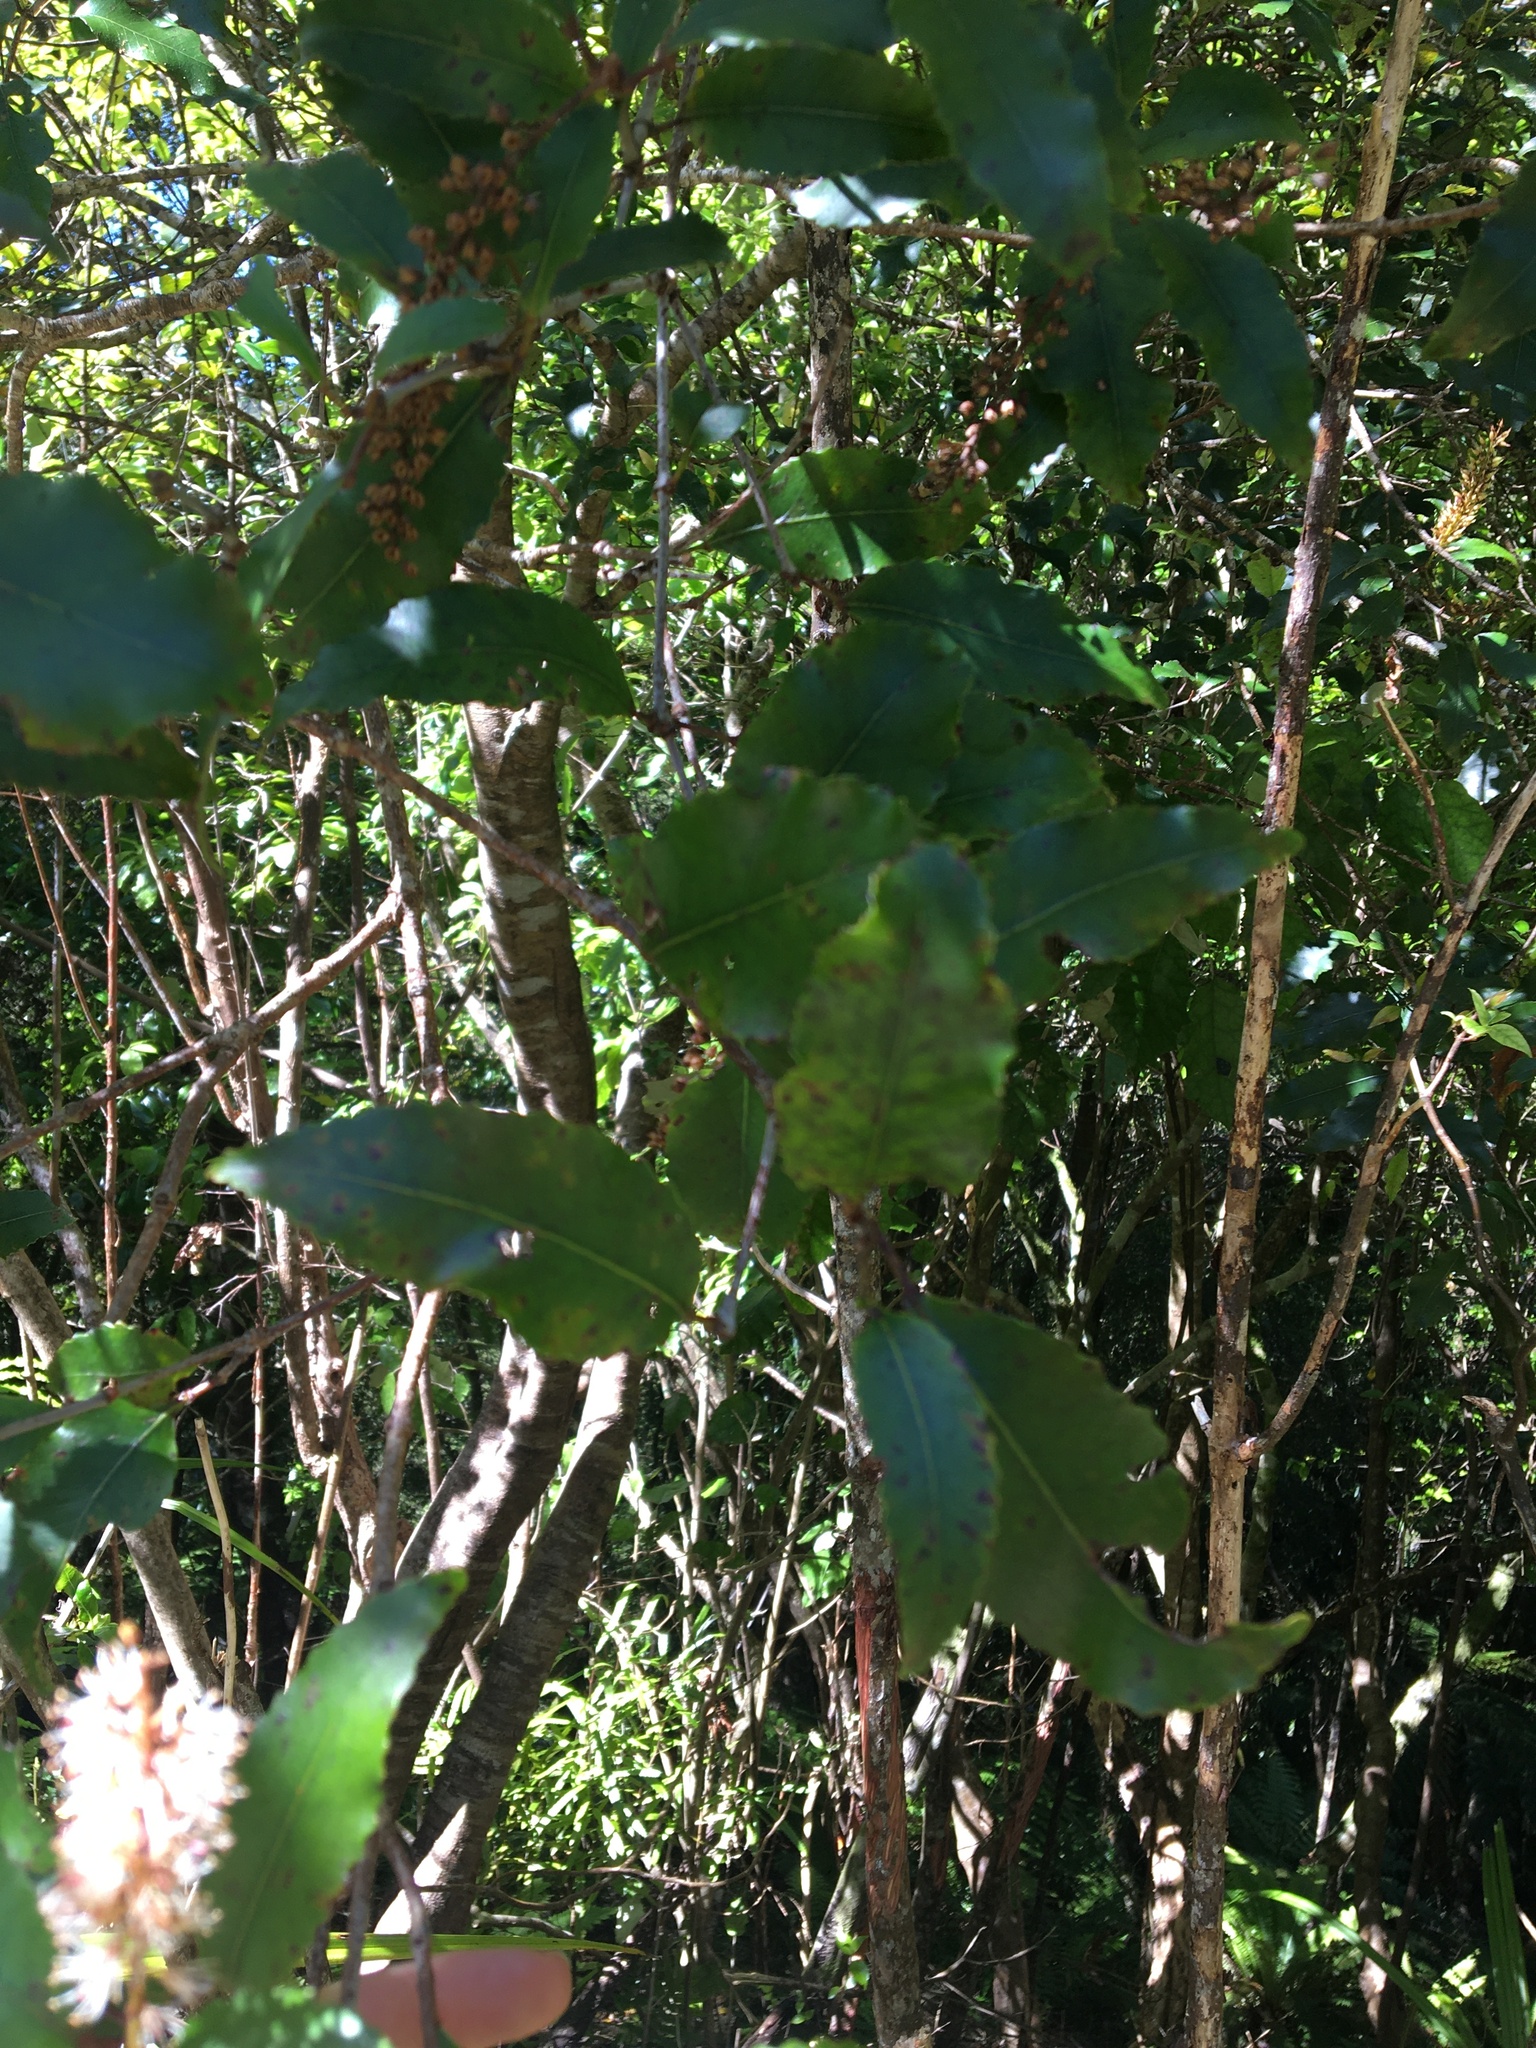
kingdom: Plantae
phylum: Tracheophyta
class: Magnoliopsida
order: Oxalidales
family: Cunoniaceae
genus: Pterophylla
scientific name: Pterophylla racemosa
